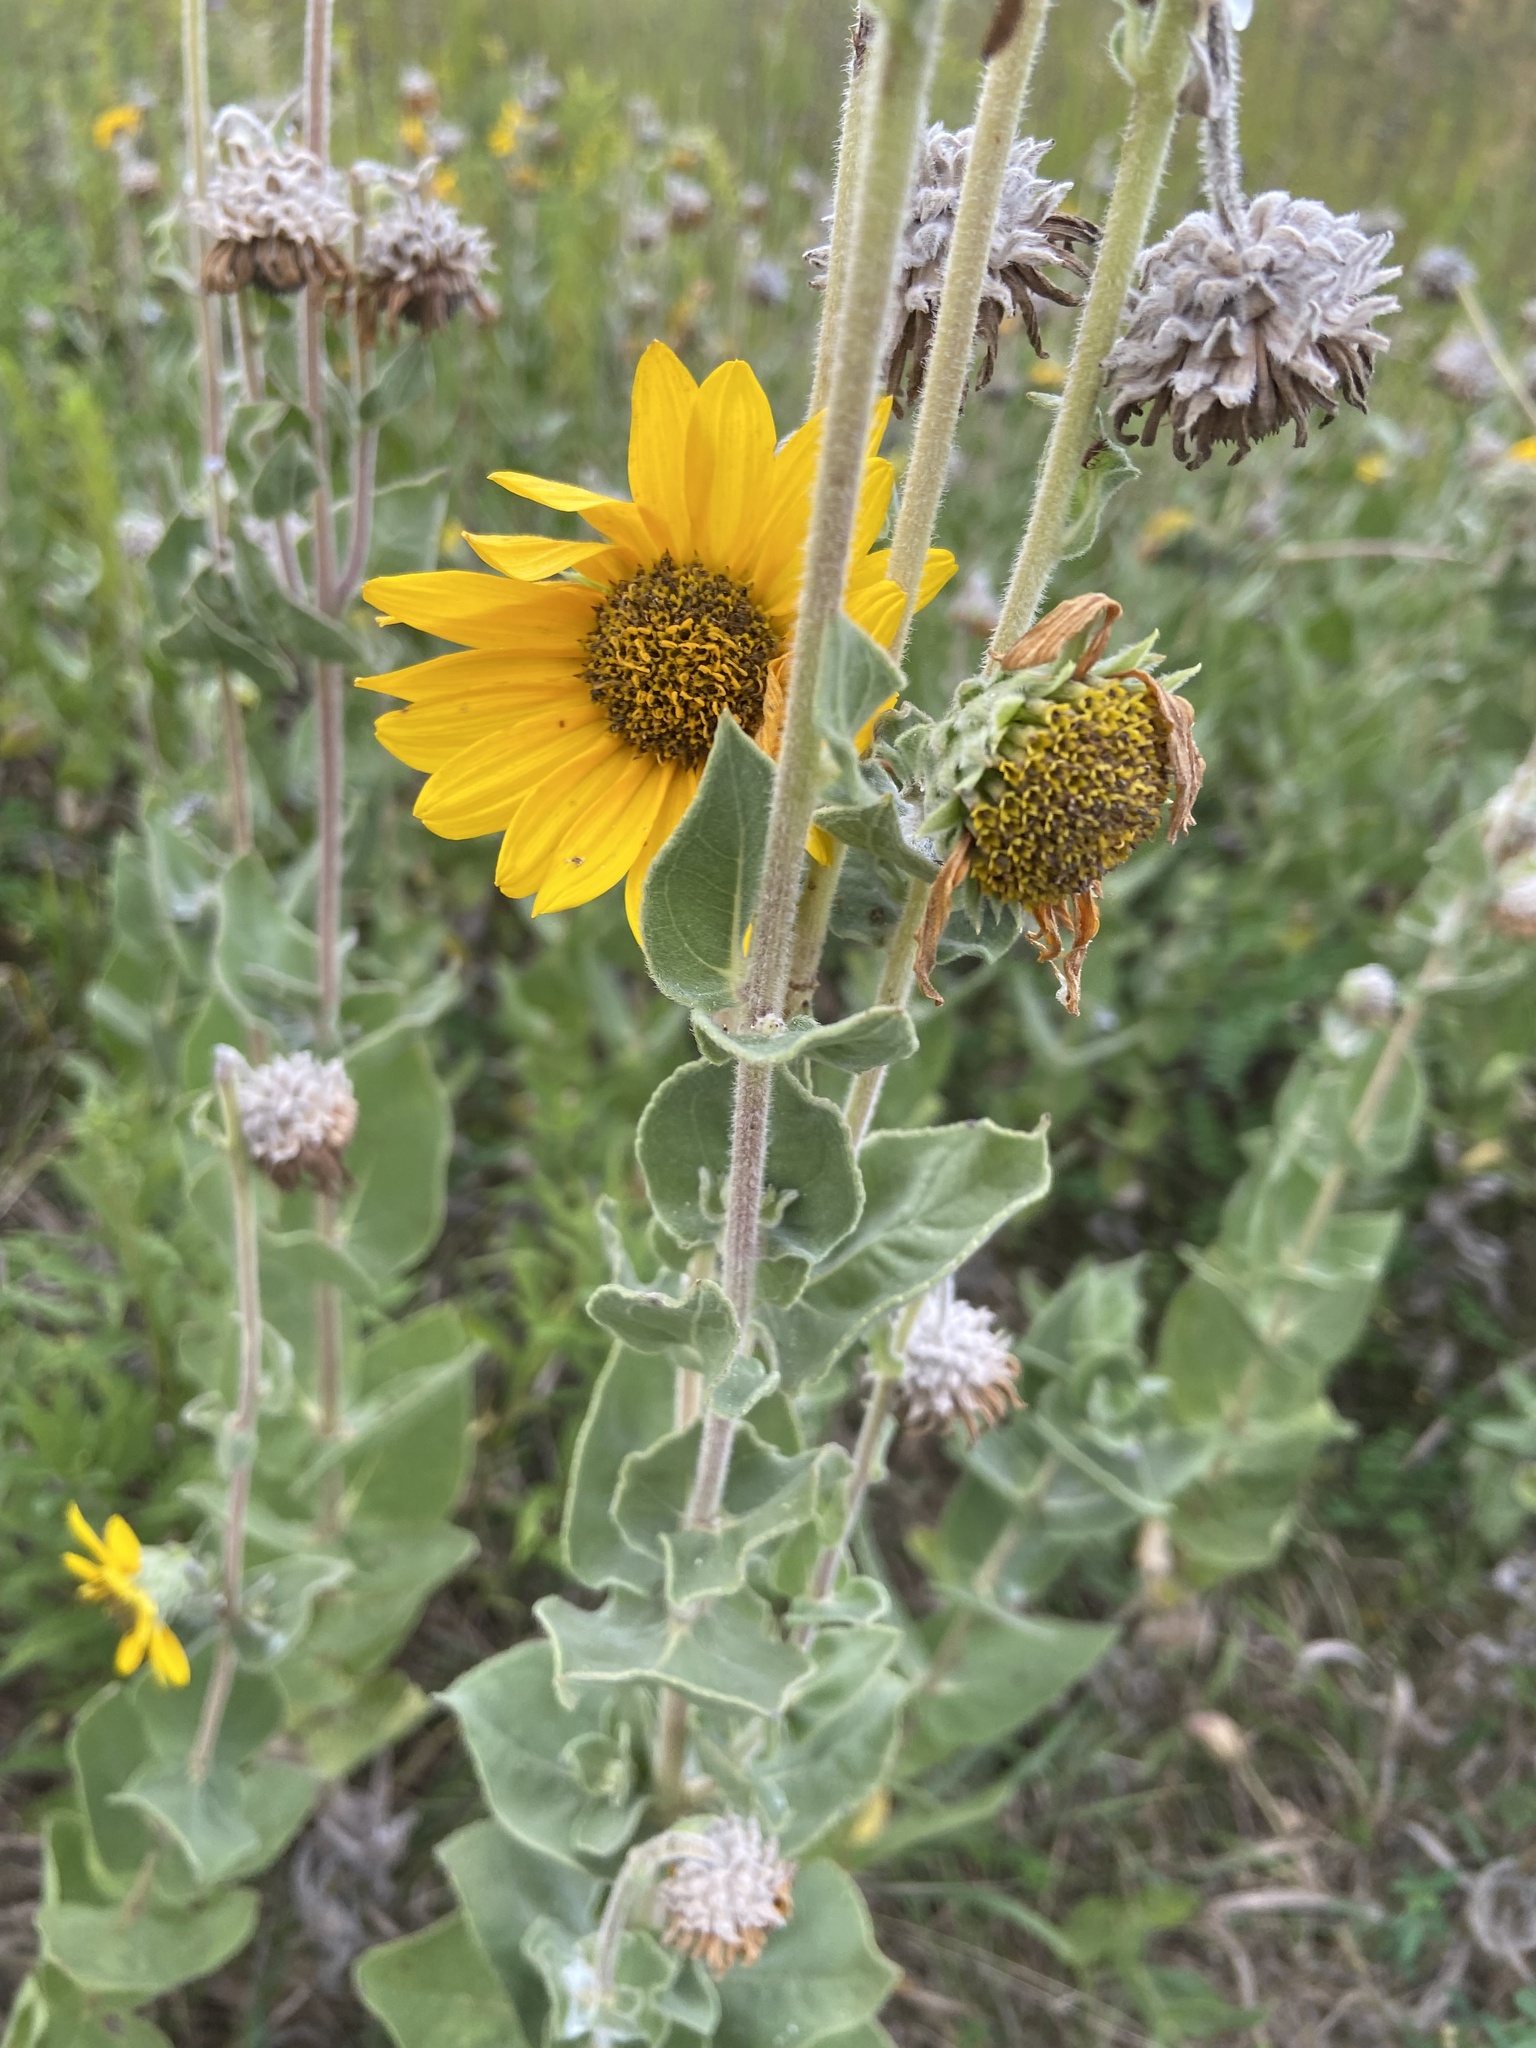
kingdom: Plantae
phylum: Tracheophyta
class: Magnoliopsida
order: Asterales
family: Asteraceae
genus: Helianthus
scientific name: Helianthus mollis
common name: Ashy sunflower
